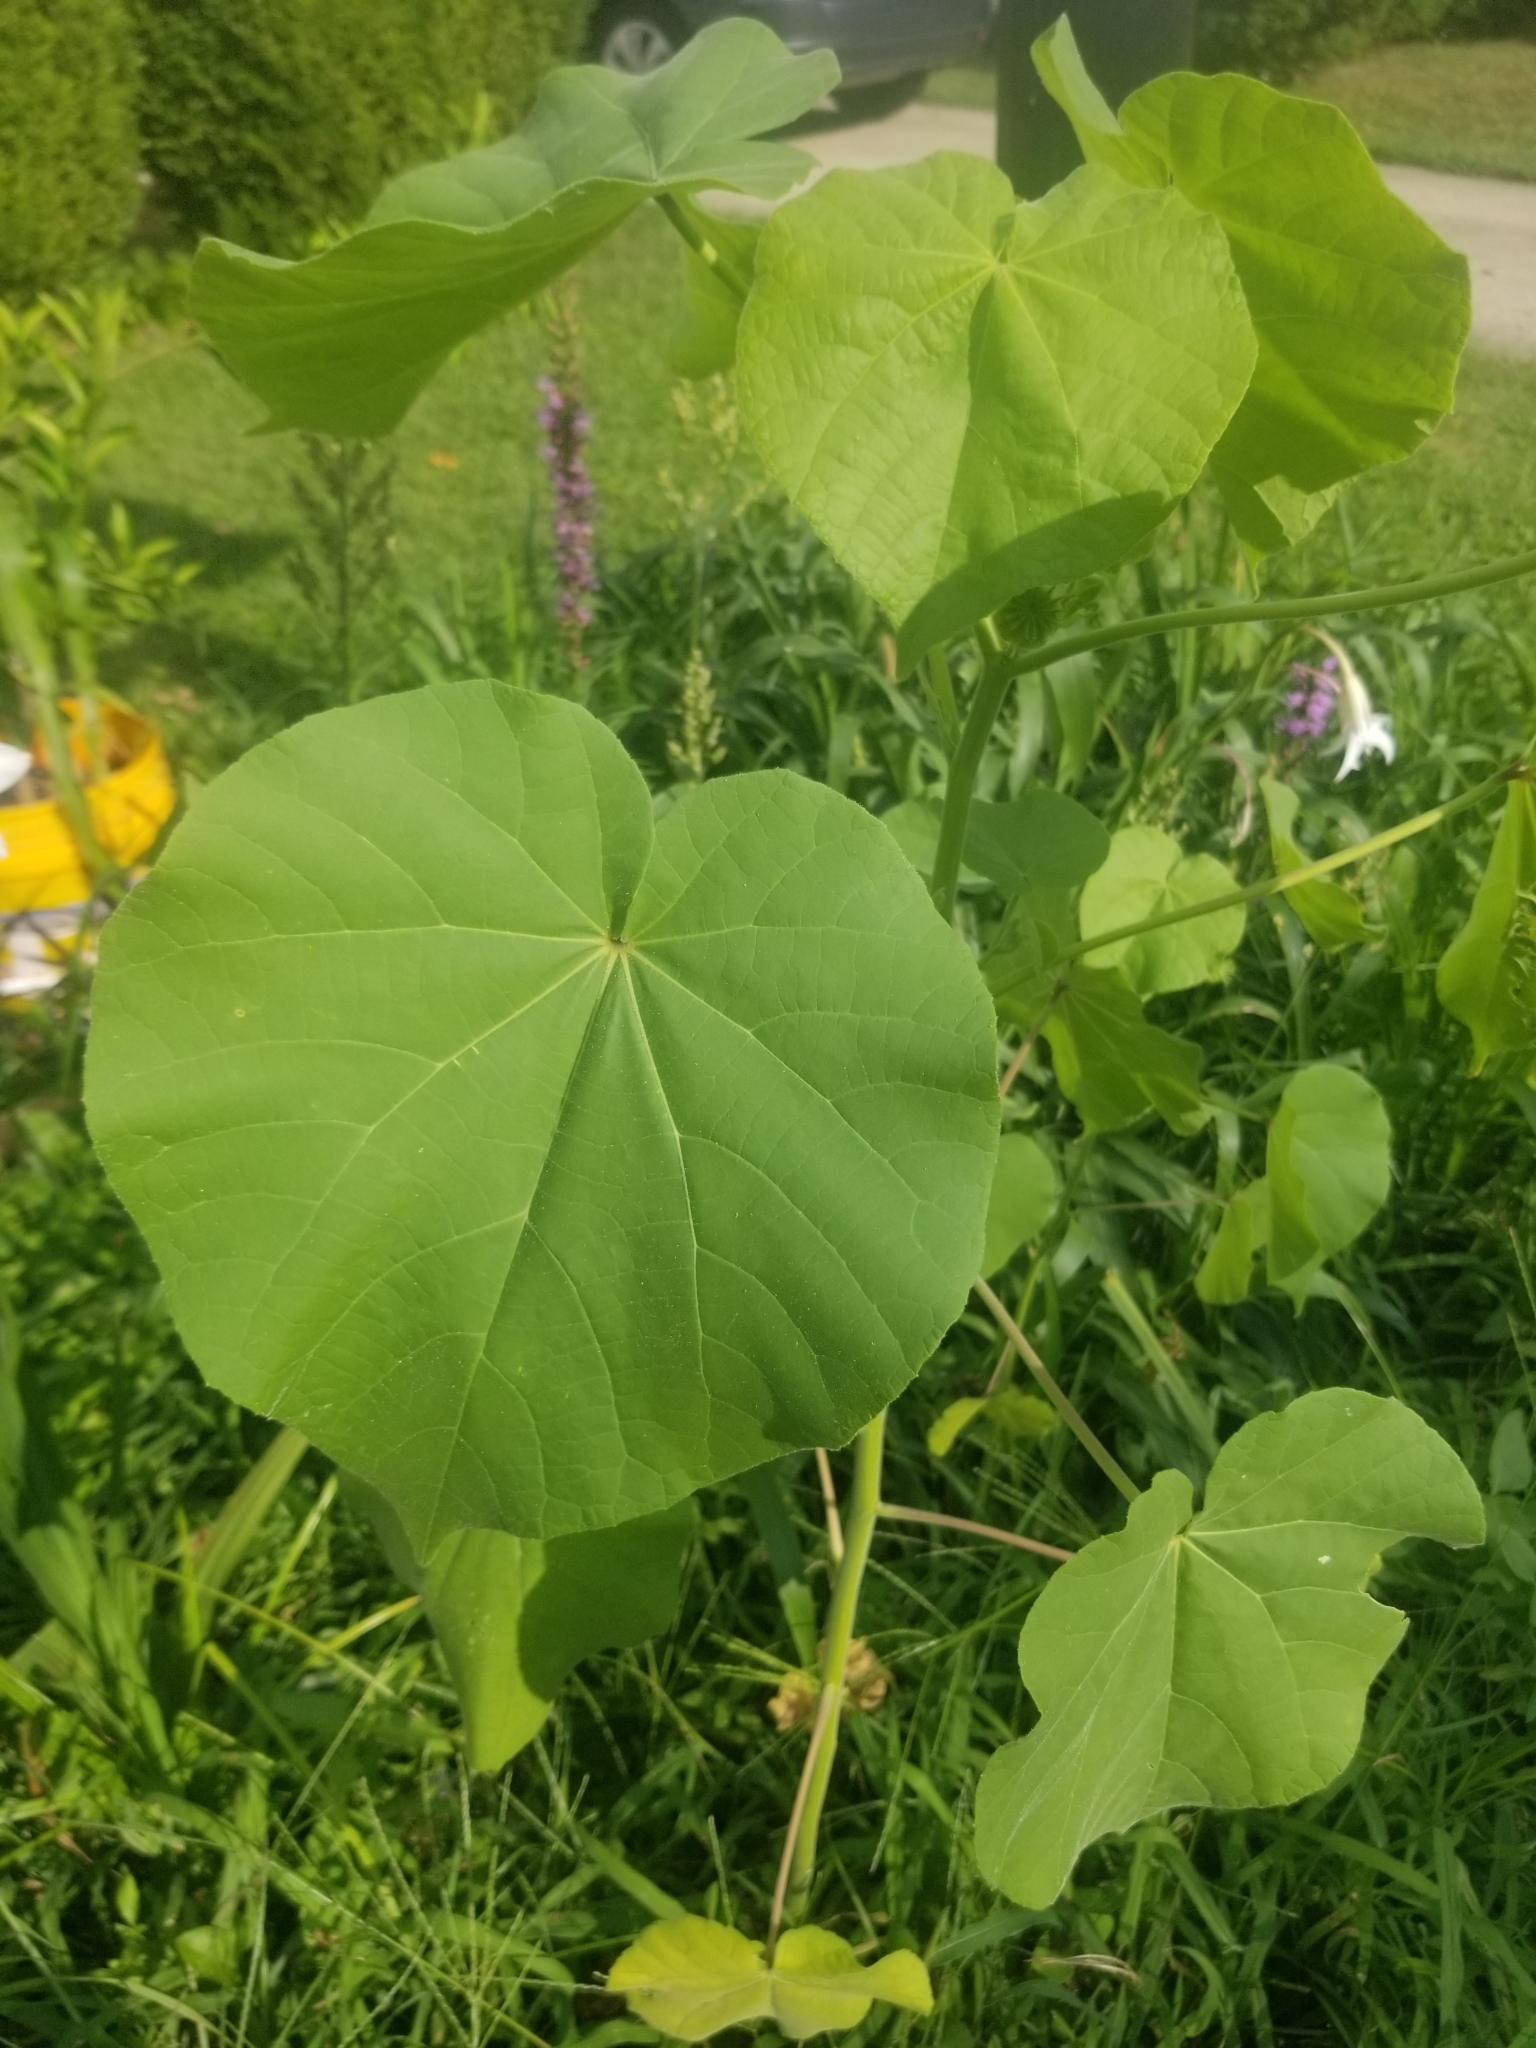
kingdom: Plantae
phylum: Tracheophyta
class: Magnoliopsida
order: Malvales
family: Malvaceae
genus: Abutilon
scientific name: Abutilon theophrasti
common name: Velvetleaf
